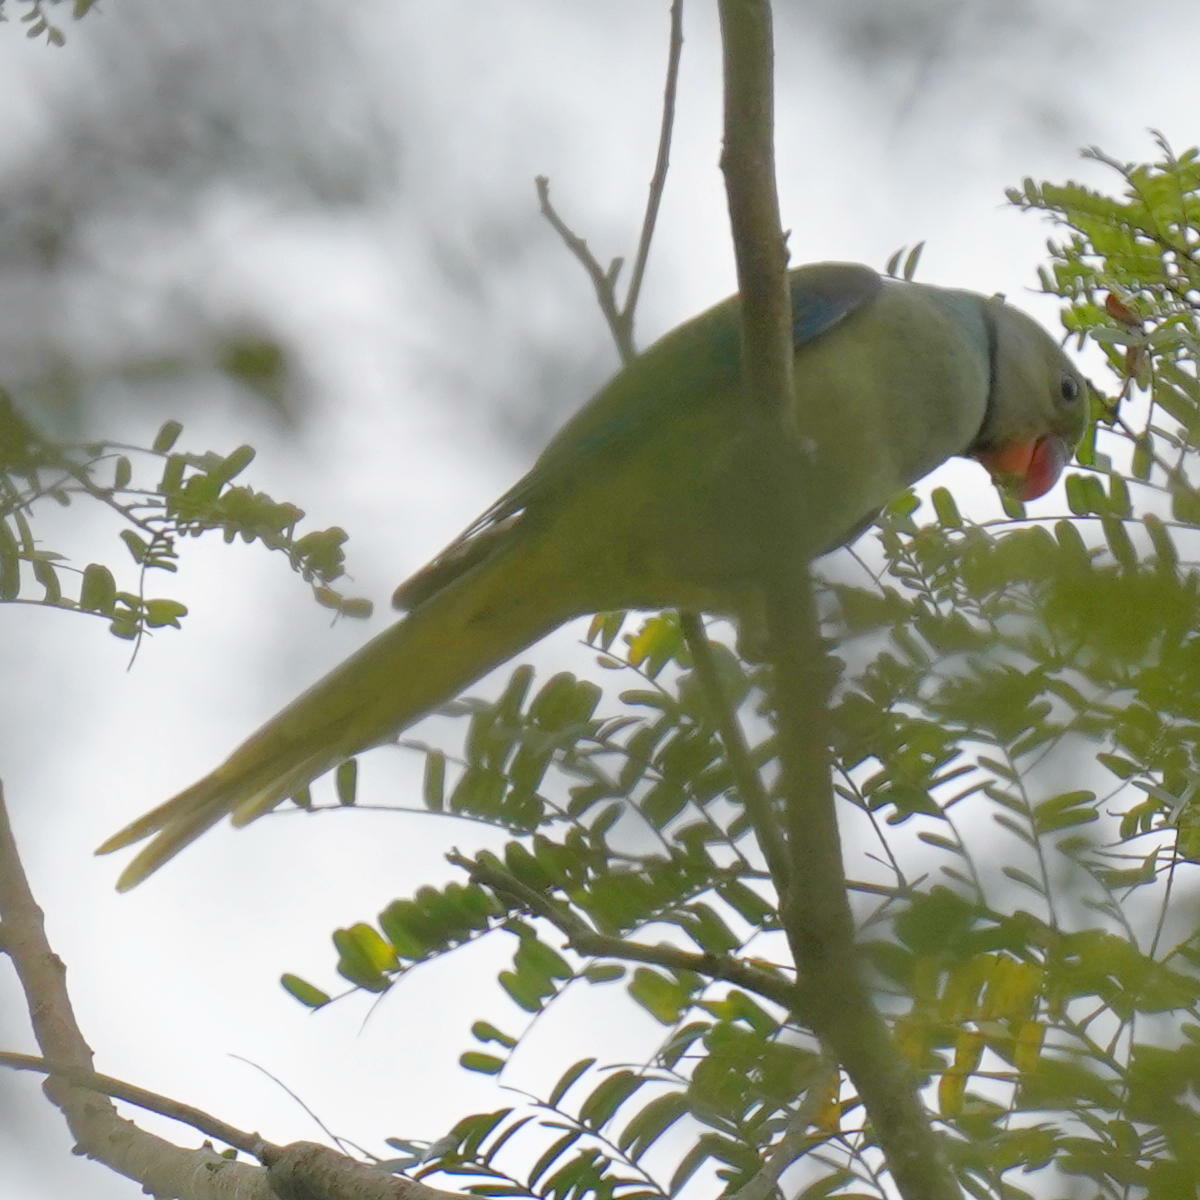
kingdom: Animalia
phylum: Chordata
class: Aves
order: Psittaciformes
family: Psittacidae
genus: Psittacula
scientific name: Psittacula columboides
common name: Blue-winged parakeet
